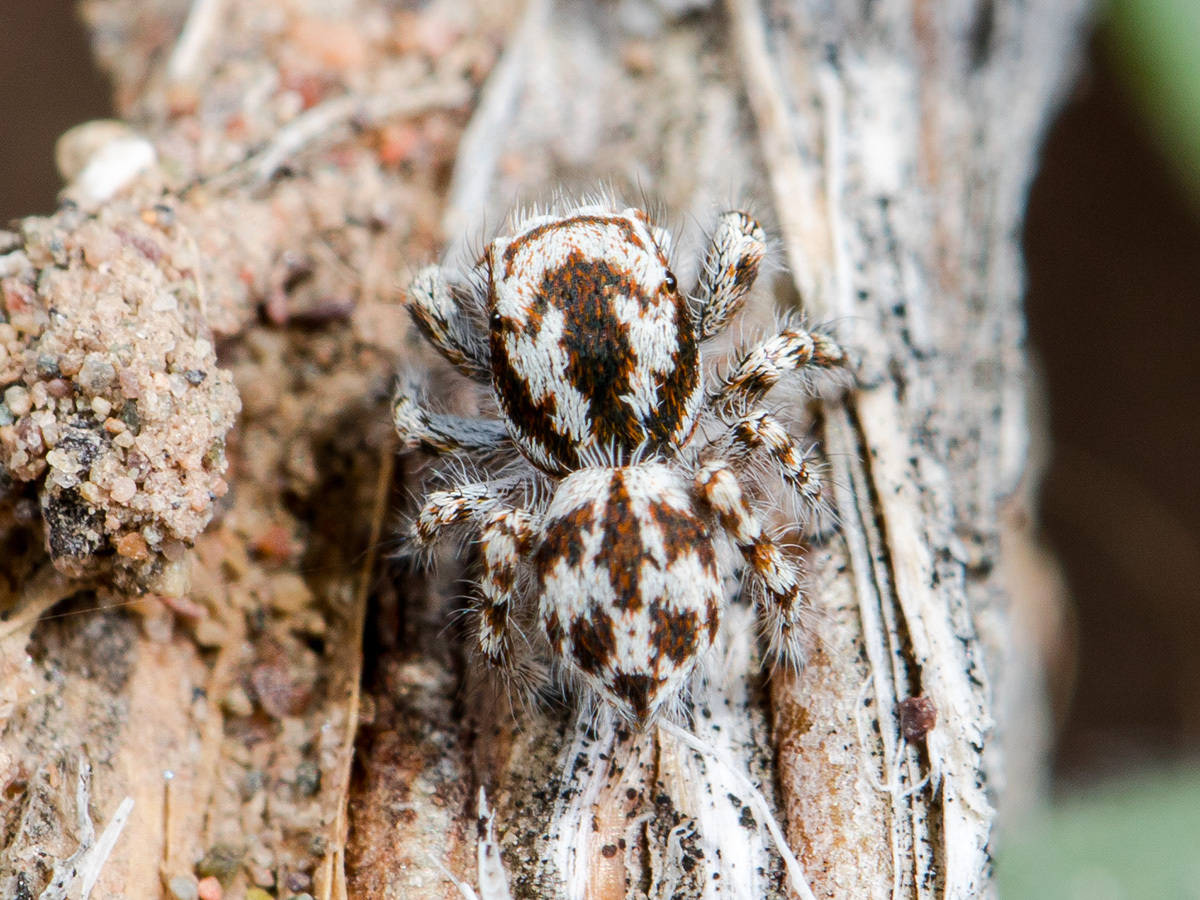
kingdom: Animalia
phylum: Arthropoda
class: Arachnida
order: Araneae
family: Salticidae
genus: Pseudomogrus
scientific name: Pseudomogrus dalaensis
